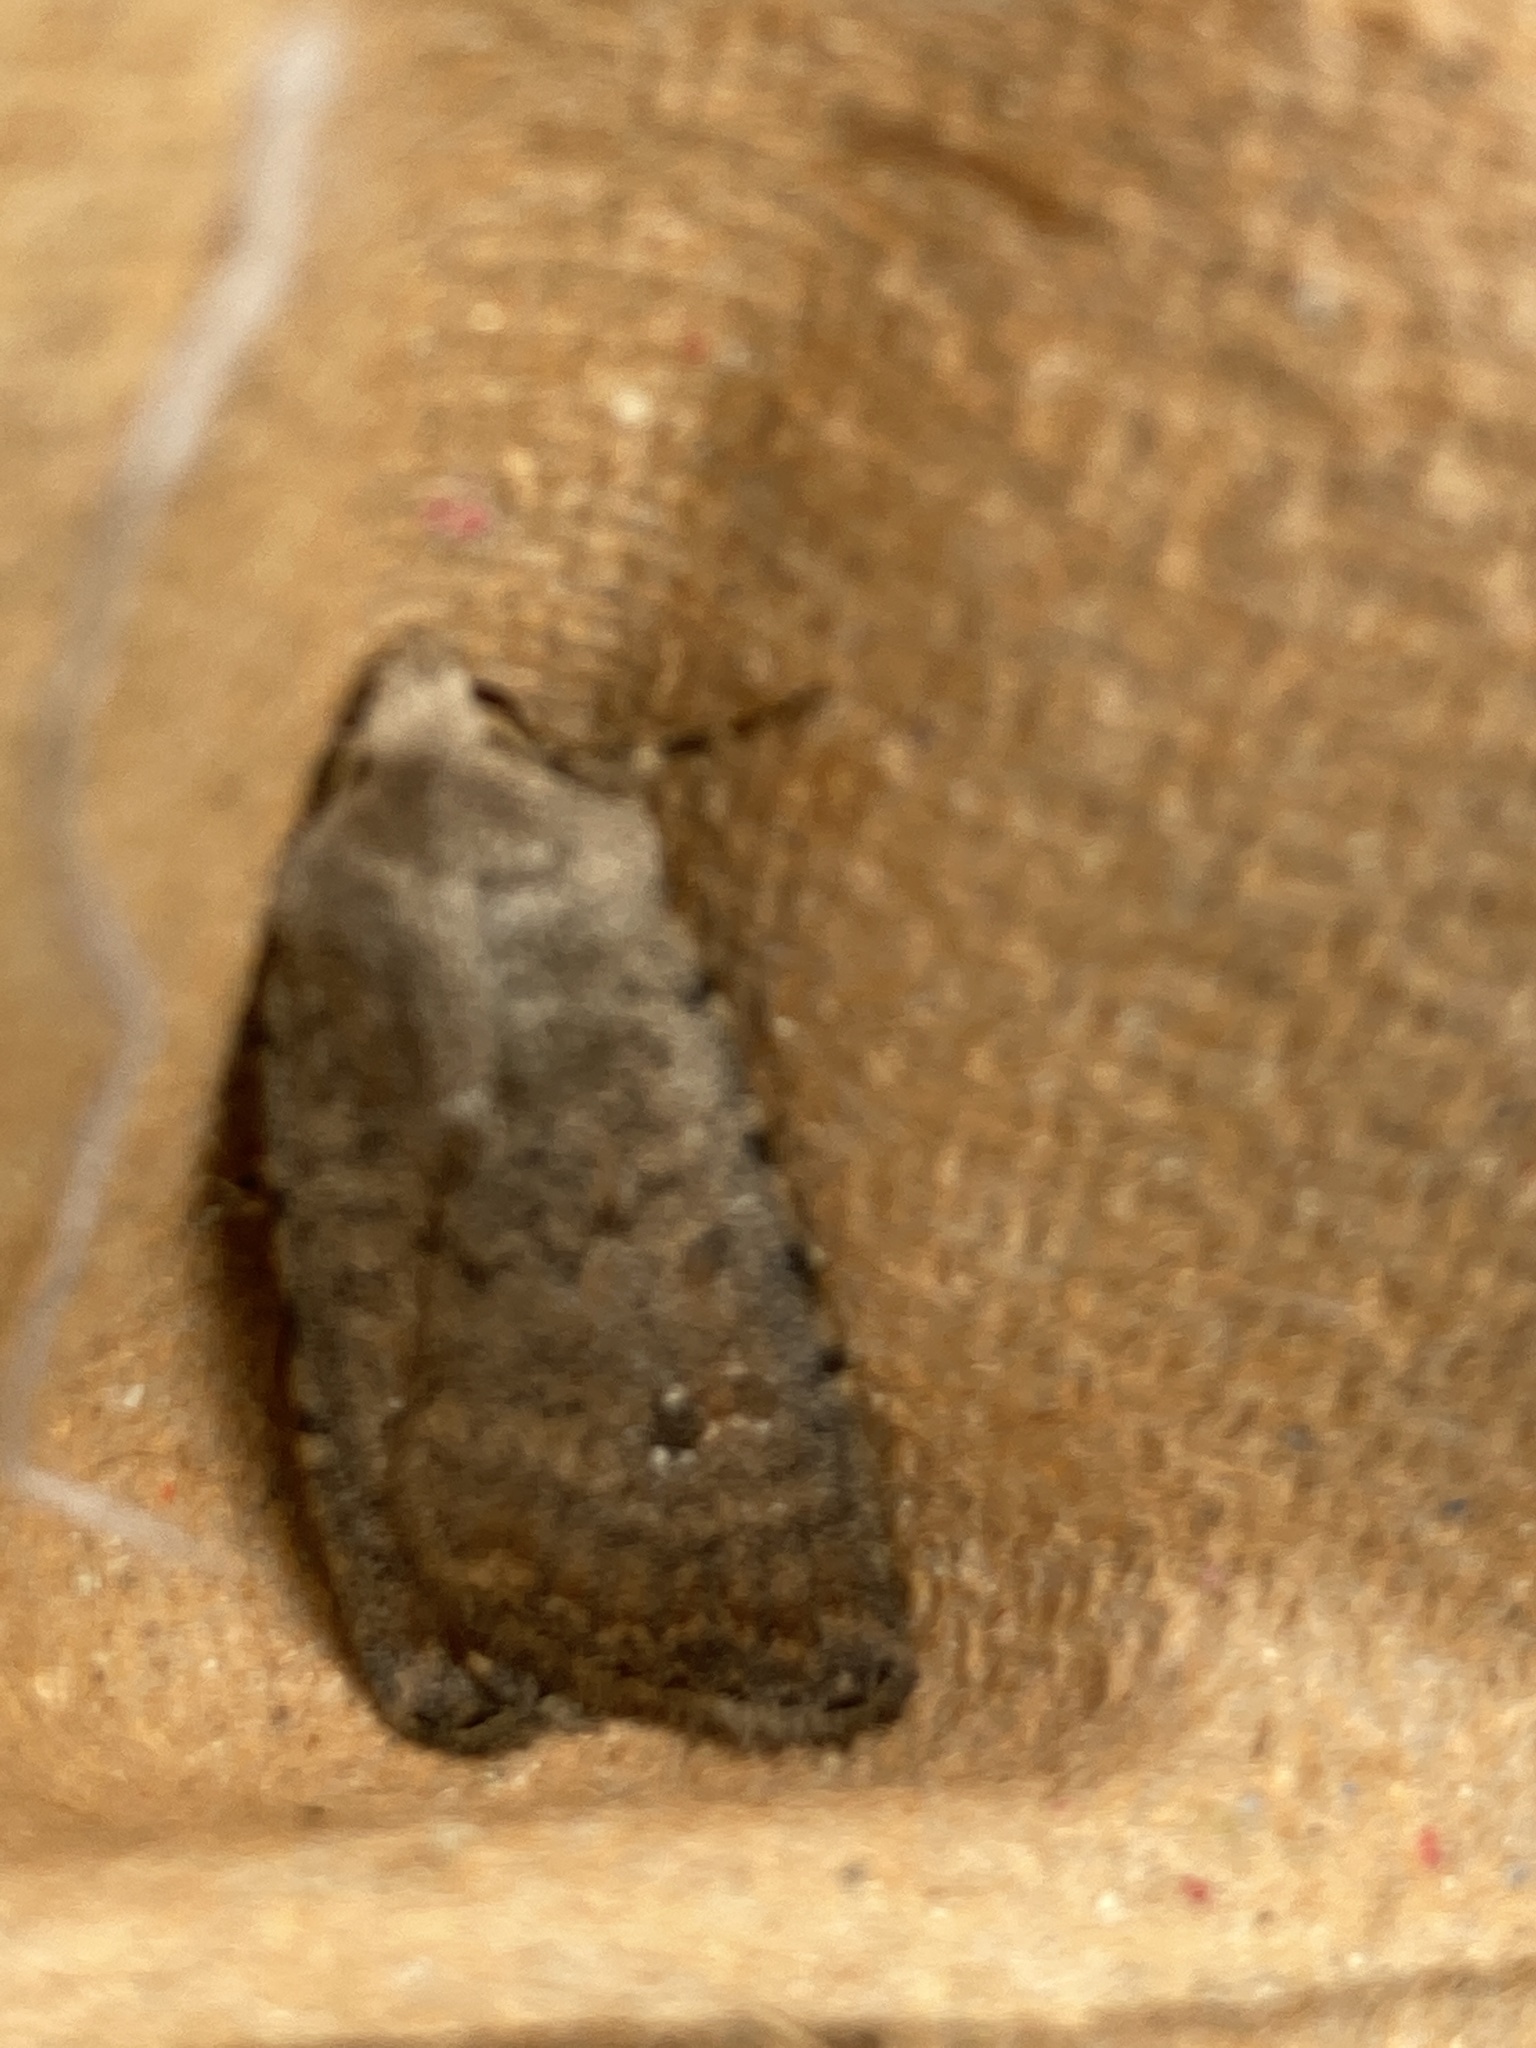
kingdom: Animalia
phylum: Arthropoda
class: Insecta
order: Lepidoptera
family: Noctuidae
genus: Caradrina
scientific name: Caradrina clavipalpis
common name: Pale mottled willow
